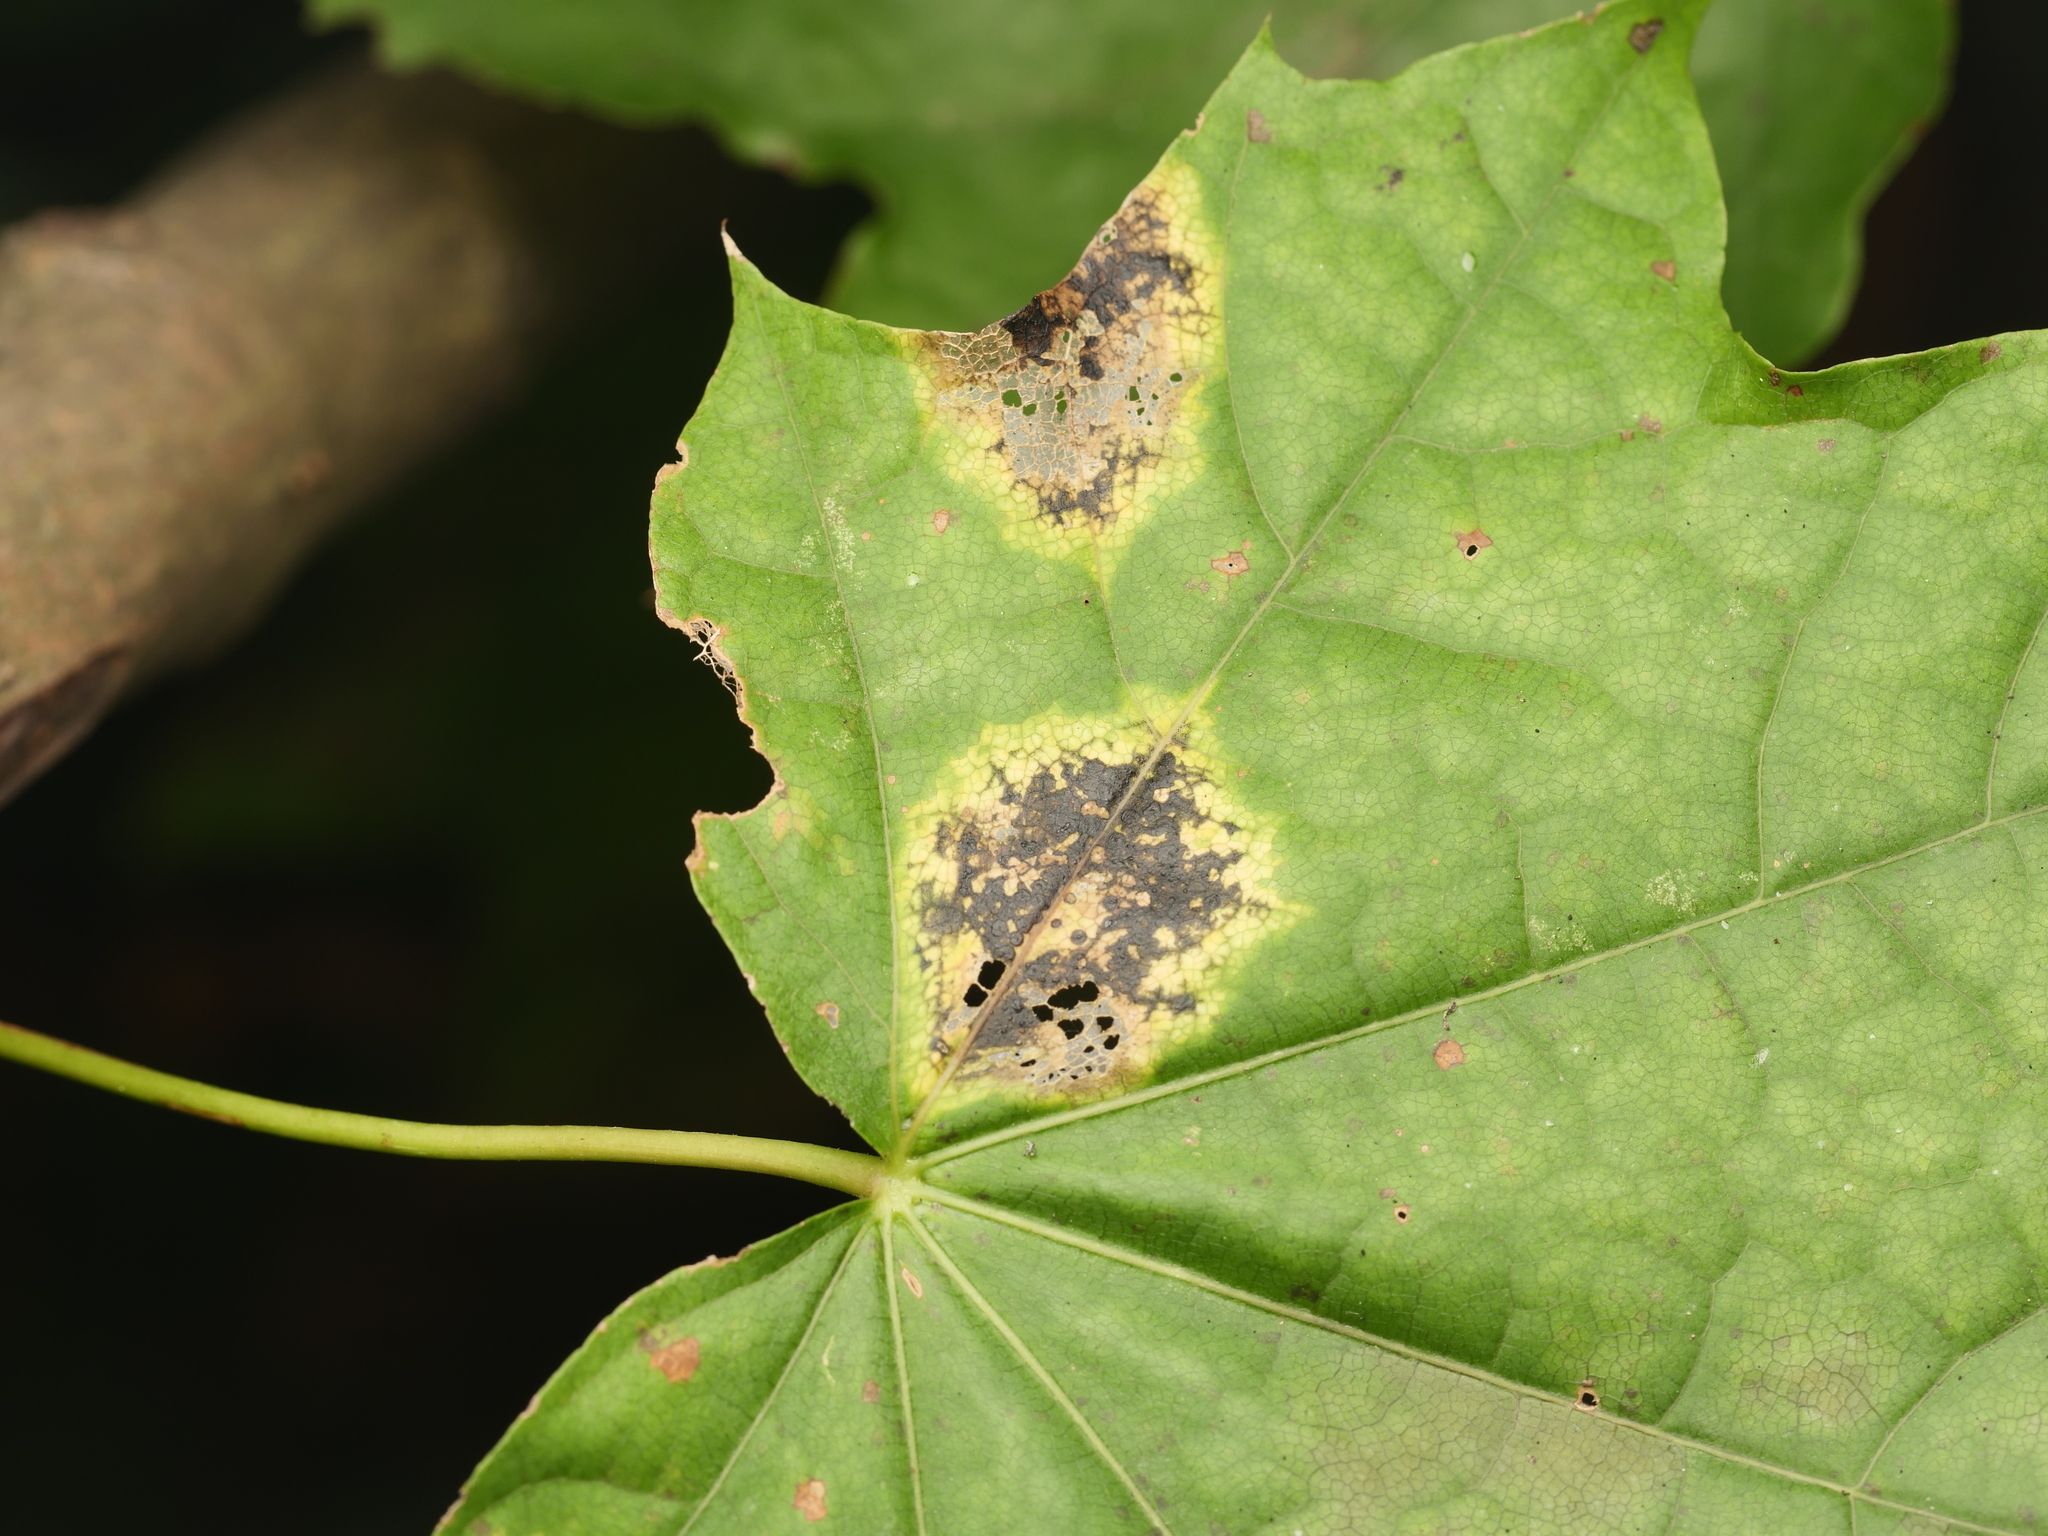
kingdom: Fungi
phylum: Ascomycota
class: Leotiomycetes
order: Rhytismatales
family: Rhytismataceae
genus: Rhytisma
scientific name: Rhytisma acerinum
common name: European tar spot
